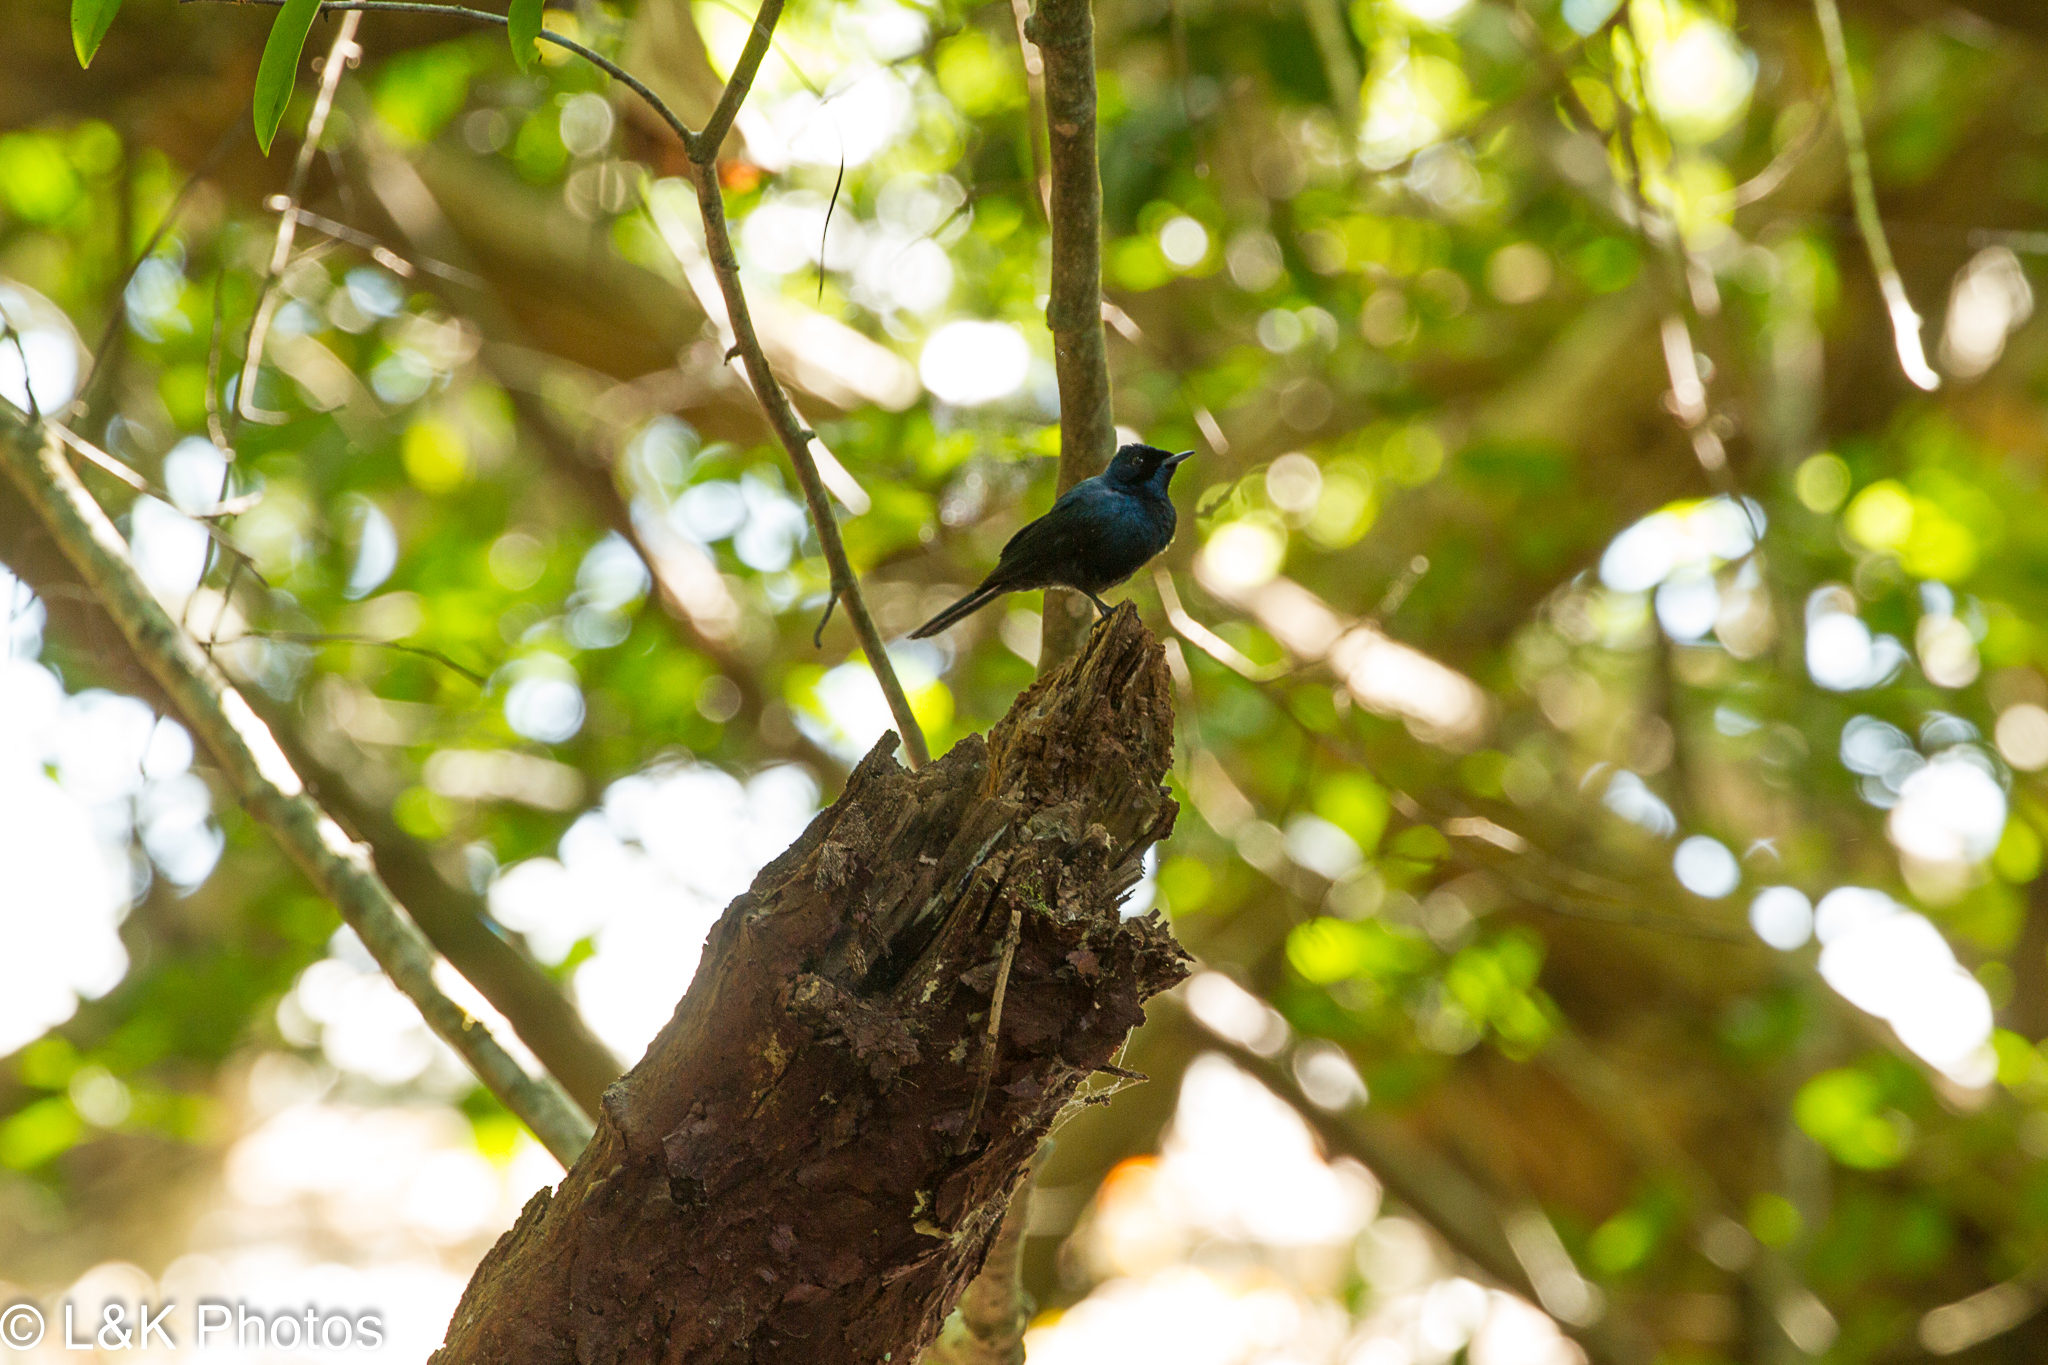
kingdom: Animalia
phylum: Chordata
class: Aves
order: Passeriformes
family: Monarchidae
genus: Myiagra
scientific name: Myiagra alecto
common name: Shining flycatcher
